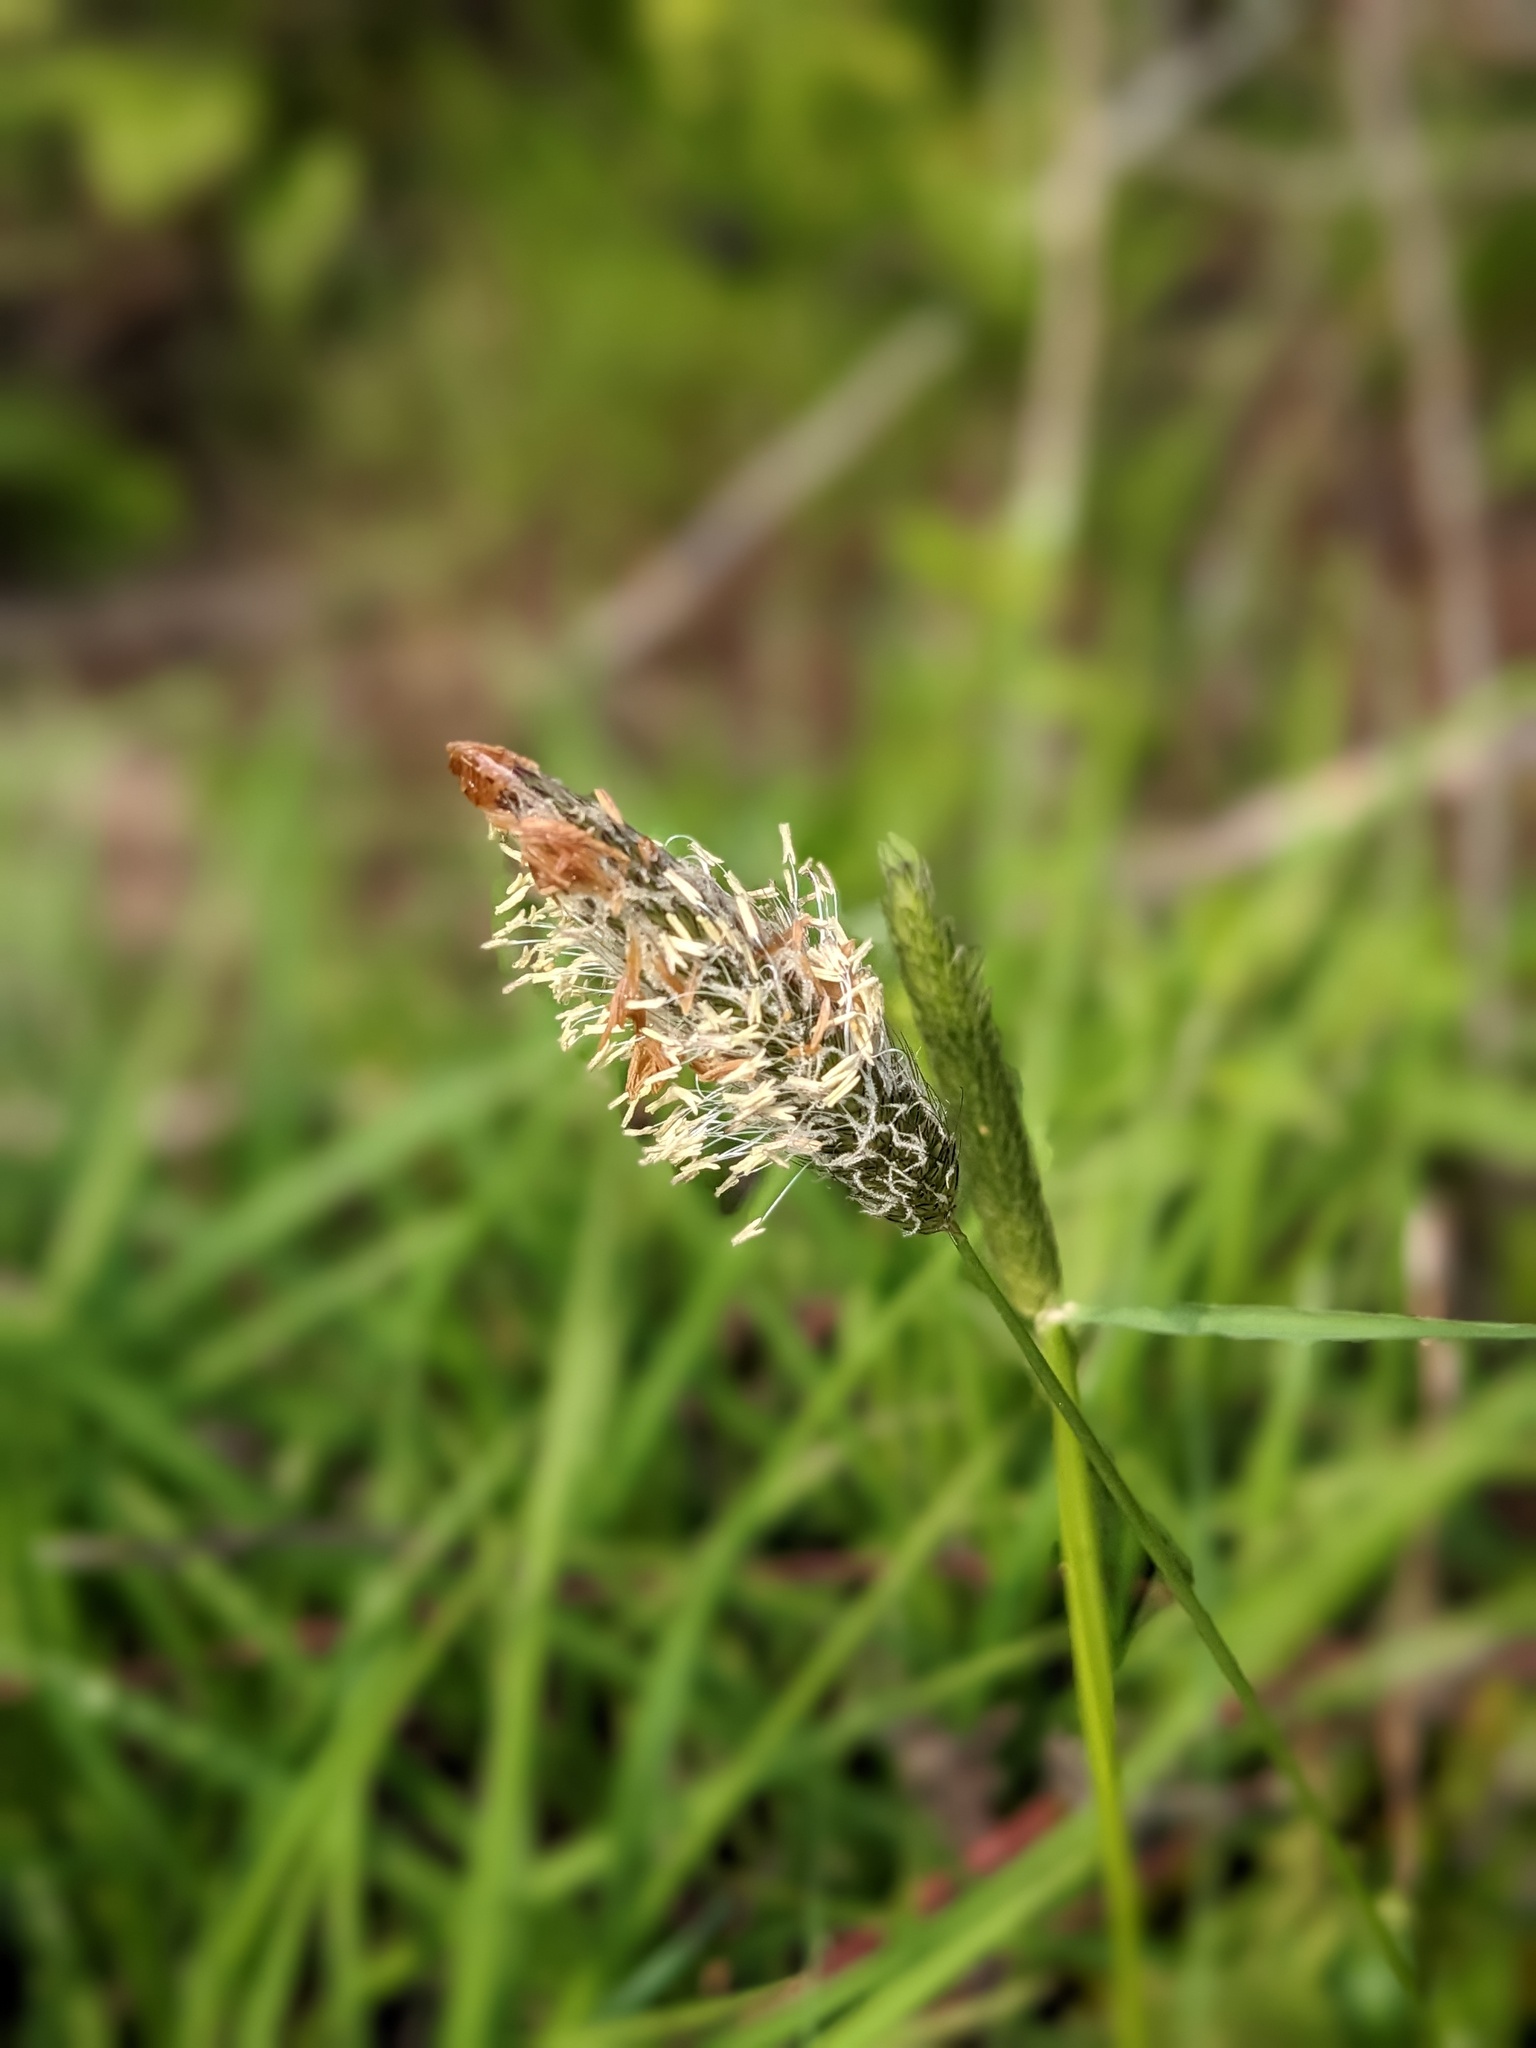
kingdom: Plantae
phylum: Tracheophyta
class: Liliopsida
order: Poales
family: Poaceae
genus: Alopecurus
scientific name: Alopecurus pratensis
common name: Meadow foxtail
